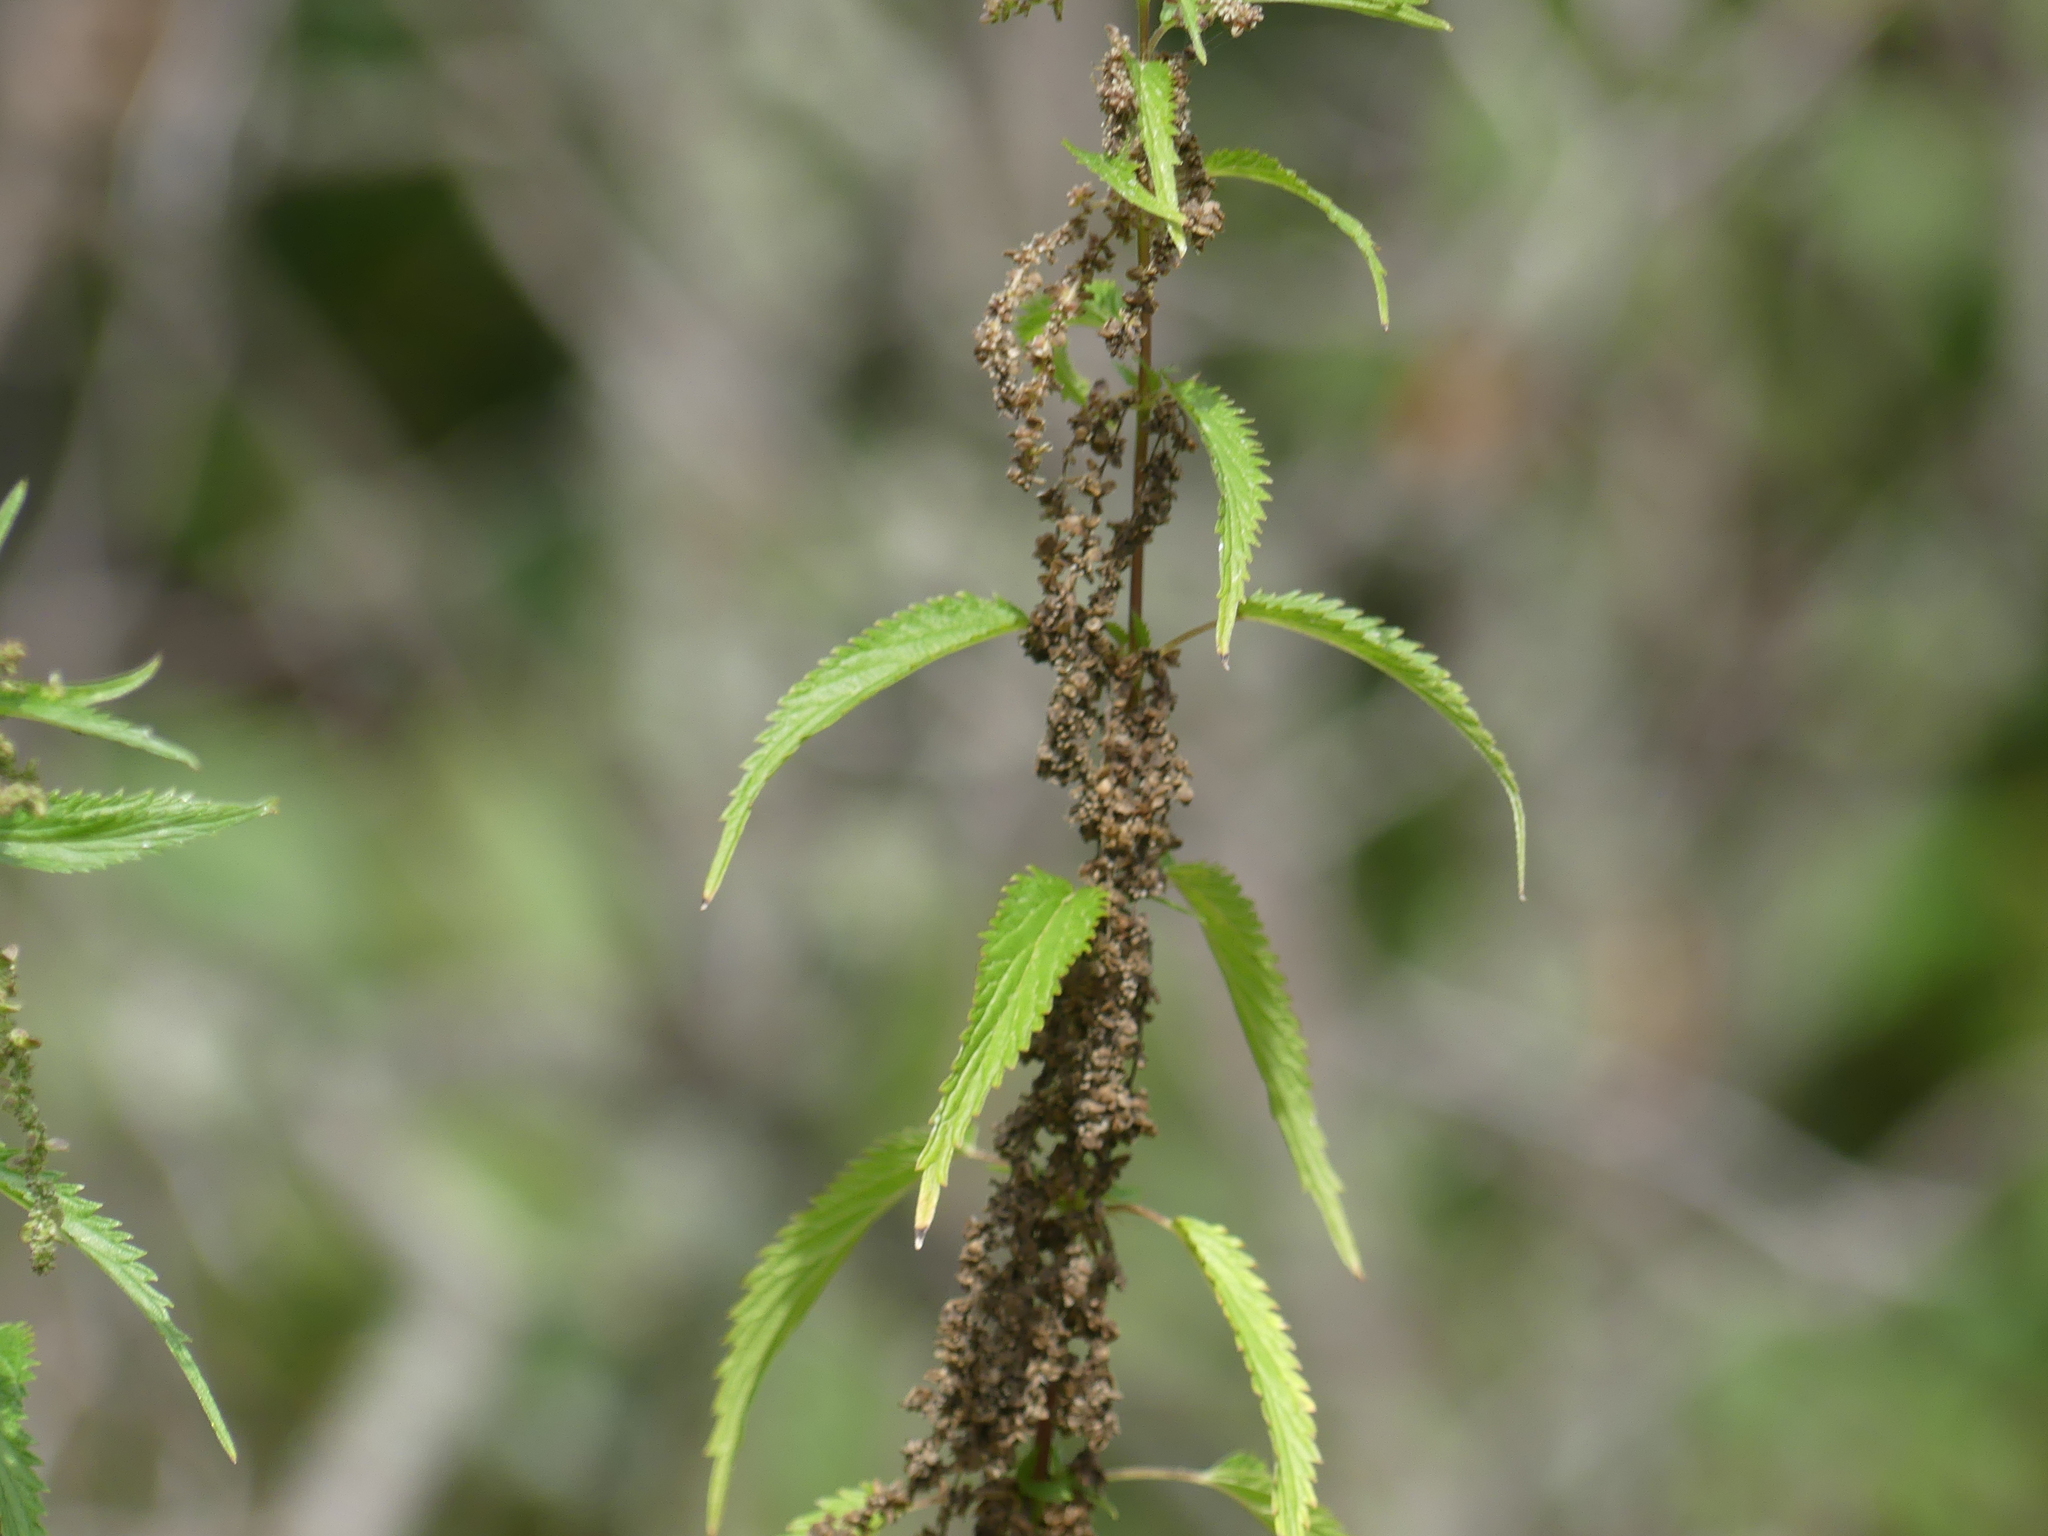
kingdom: Plantae
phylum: Tracheophyta
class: Magnoliopsida
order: Rosales
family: Urticaceae
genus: Urtica
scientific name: Urtica gracilis
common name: Slender stinging nettle
